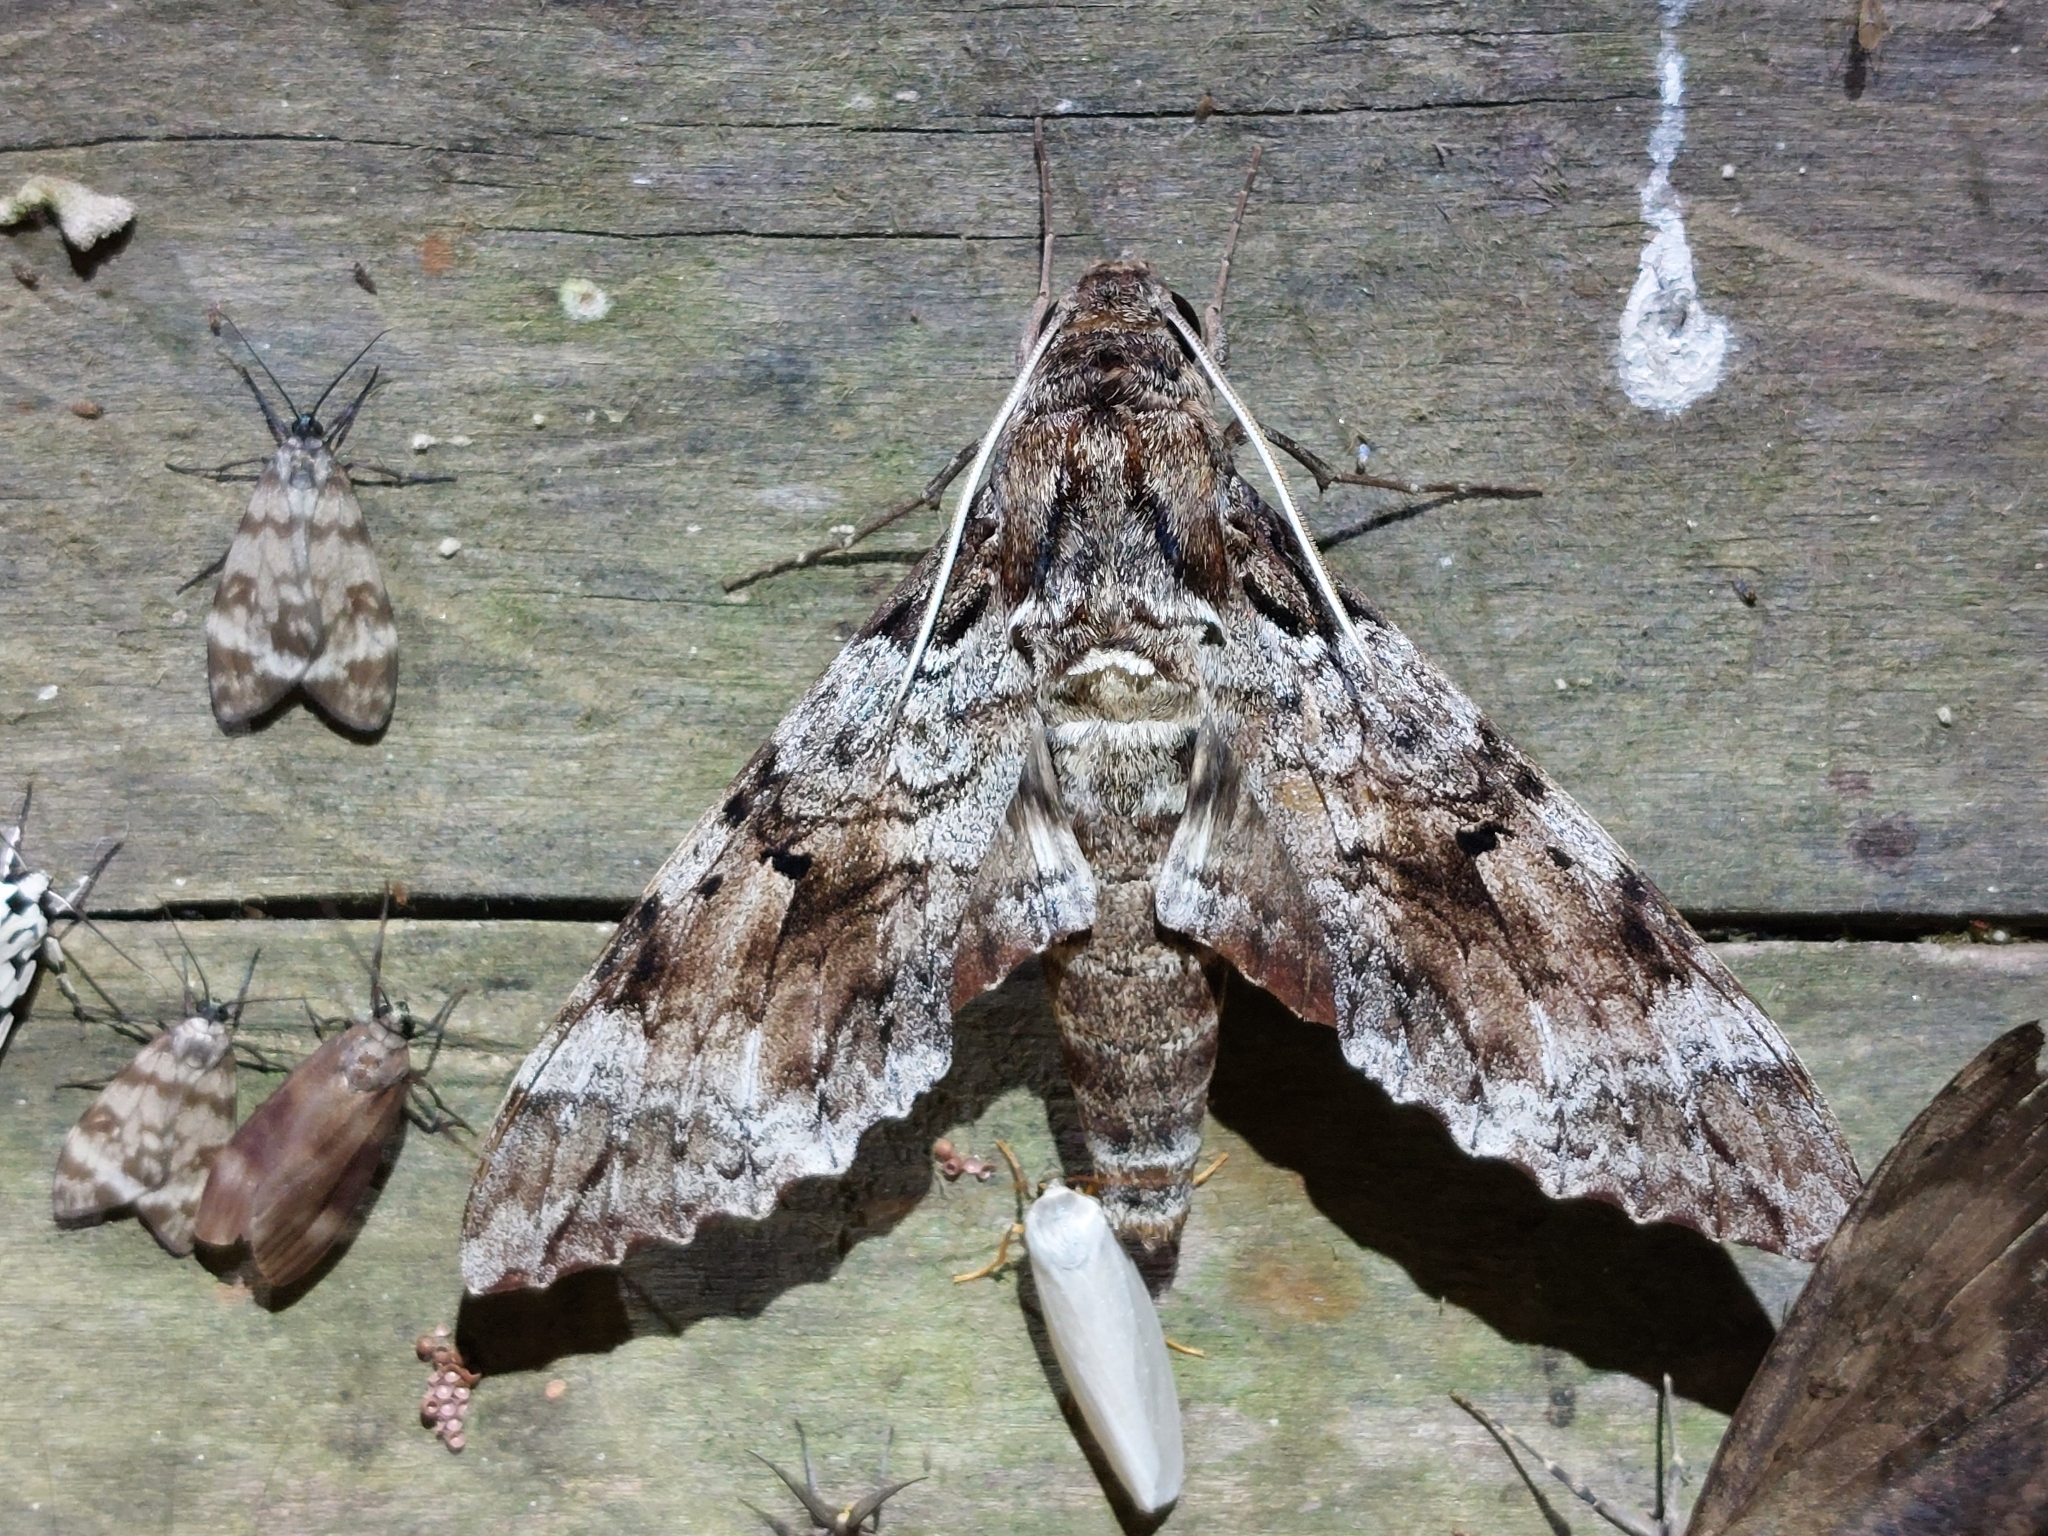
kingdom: Animalia
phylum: Arthropoda
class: Insecta
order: Lepidoptera
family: Sphingidae
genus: Pseudosphinx
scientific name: Pseudosphinx tetrio
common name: Tetrio sphinx
